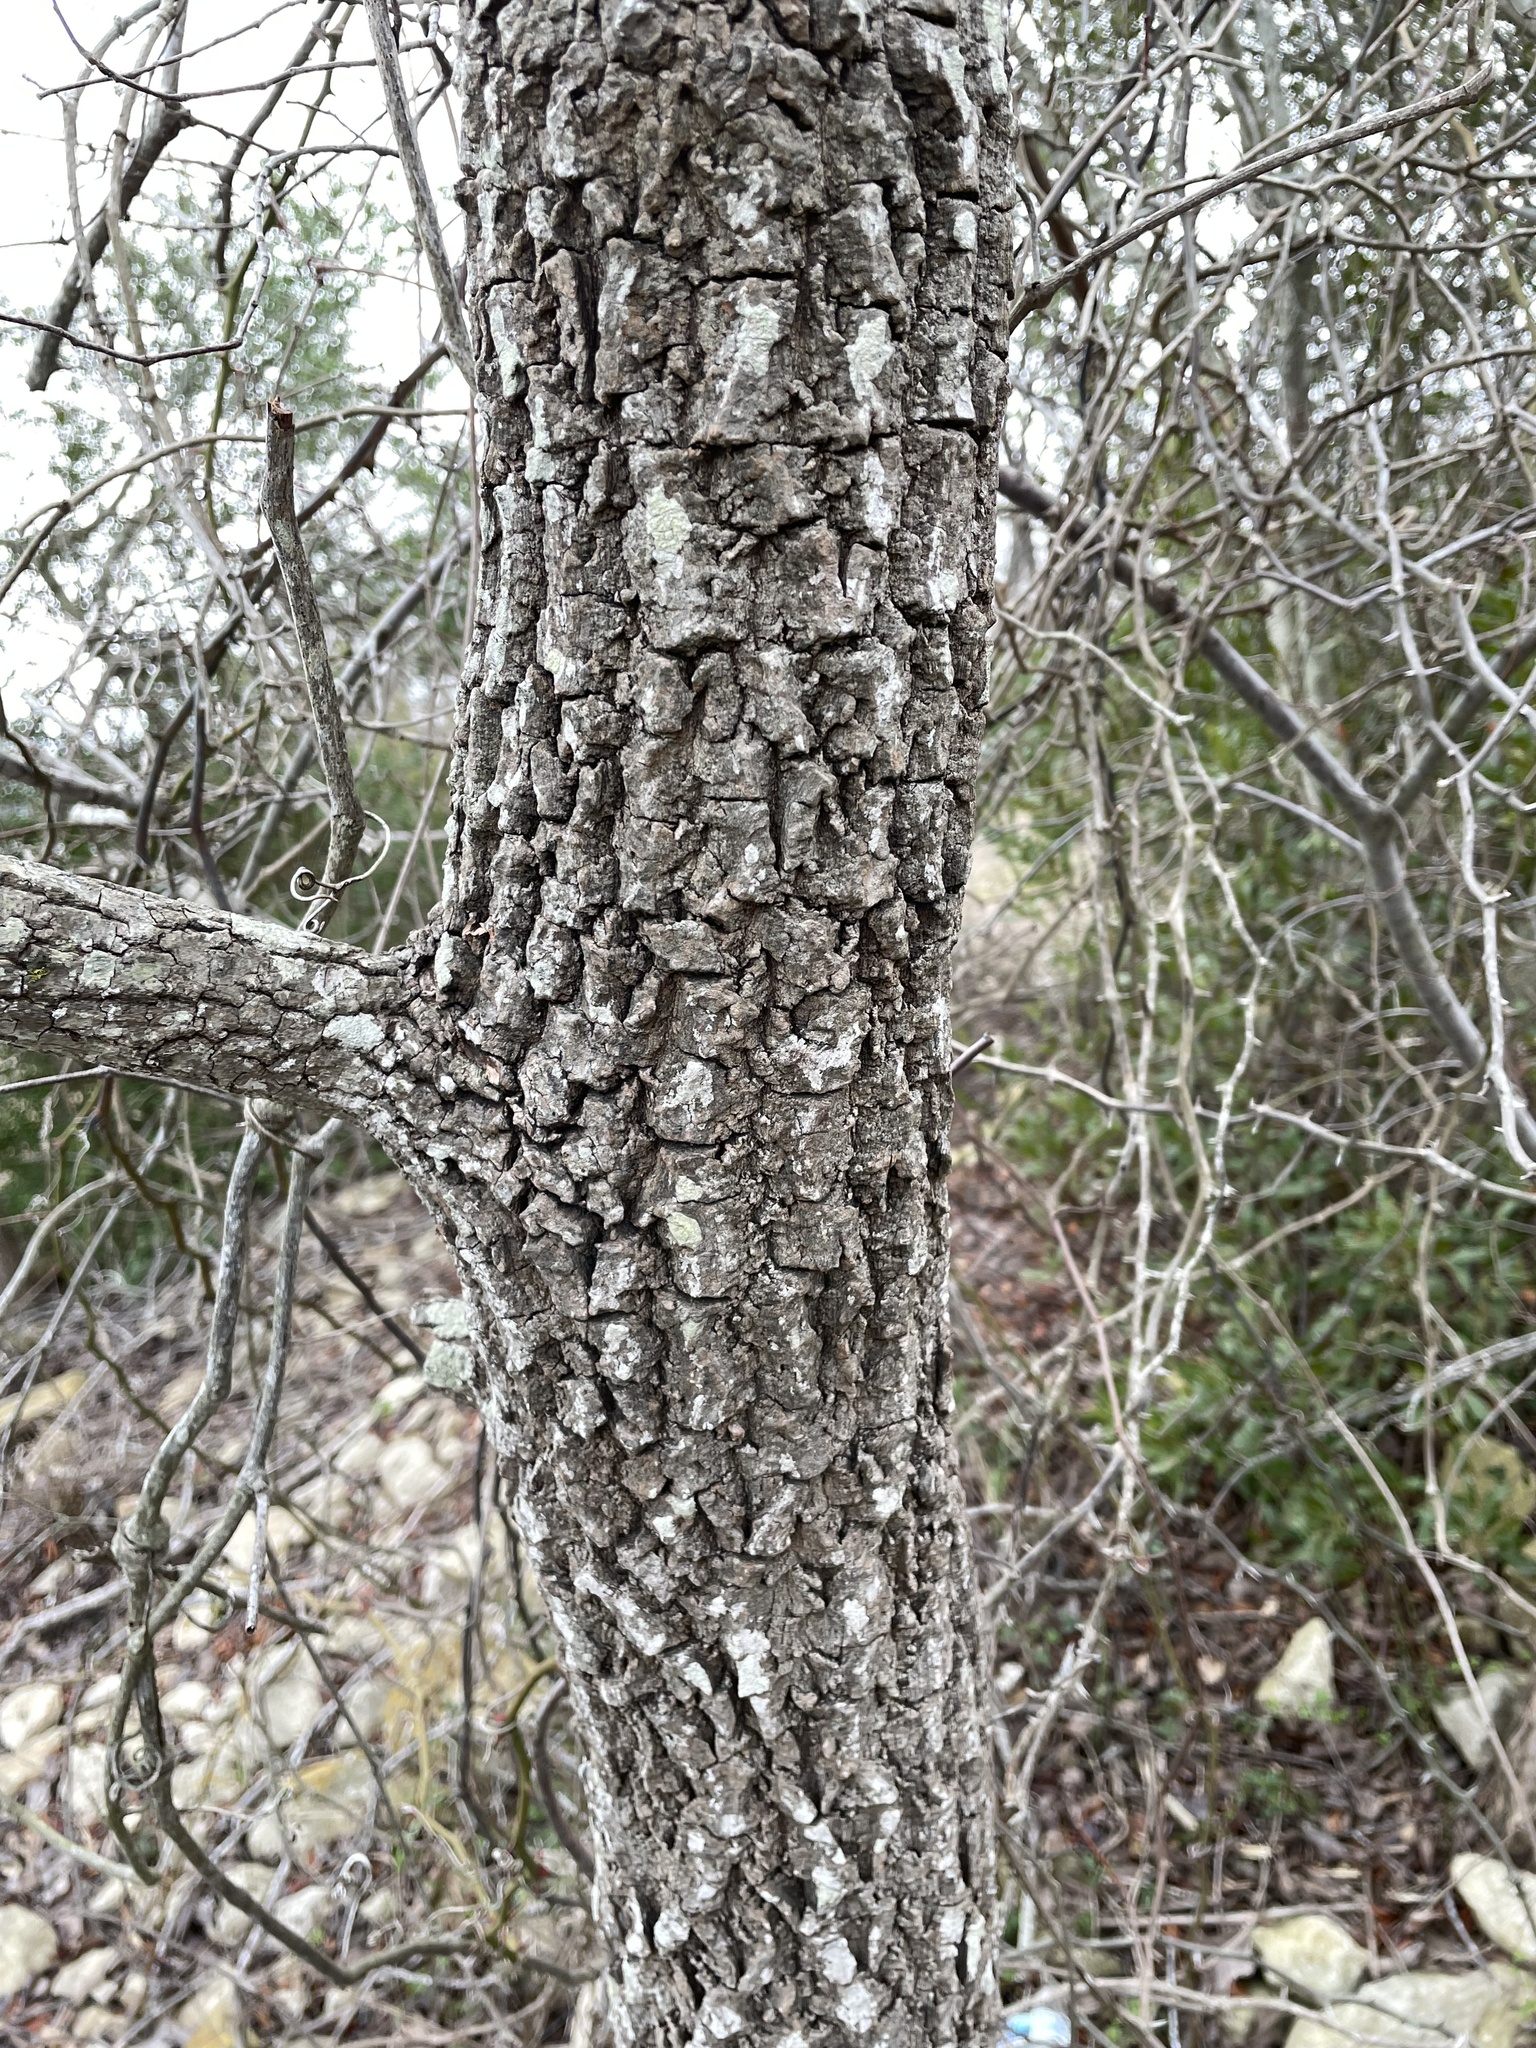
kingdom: Plantae
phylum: Tracheophyta
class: Magnoliopsida
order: Ericales
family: Ebenaceae
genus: Diospyros
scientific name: Diospyros virginiana
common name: Persimmon
